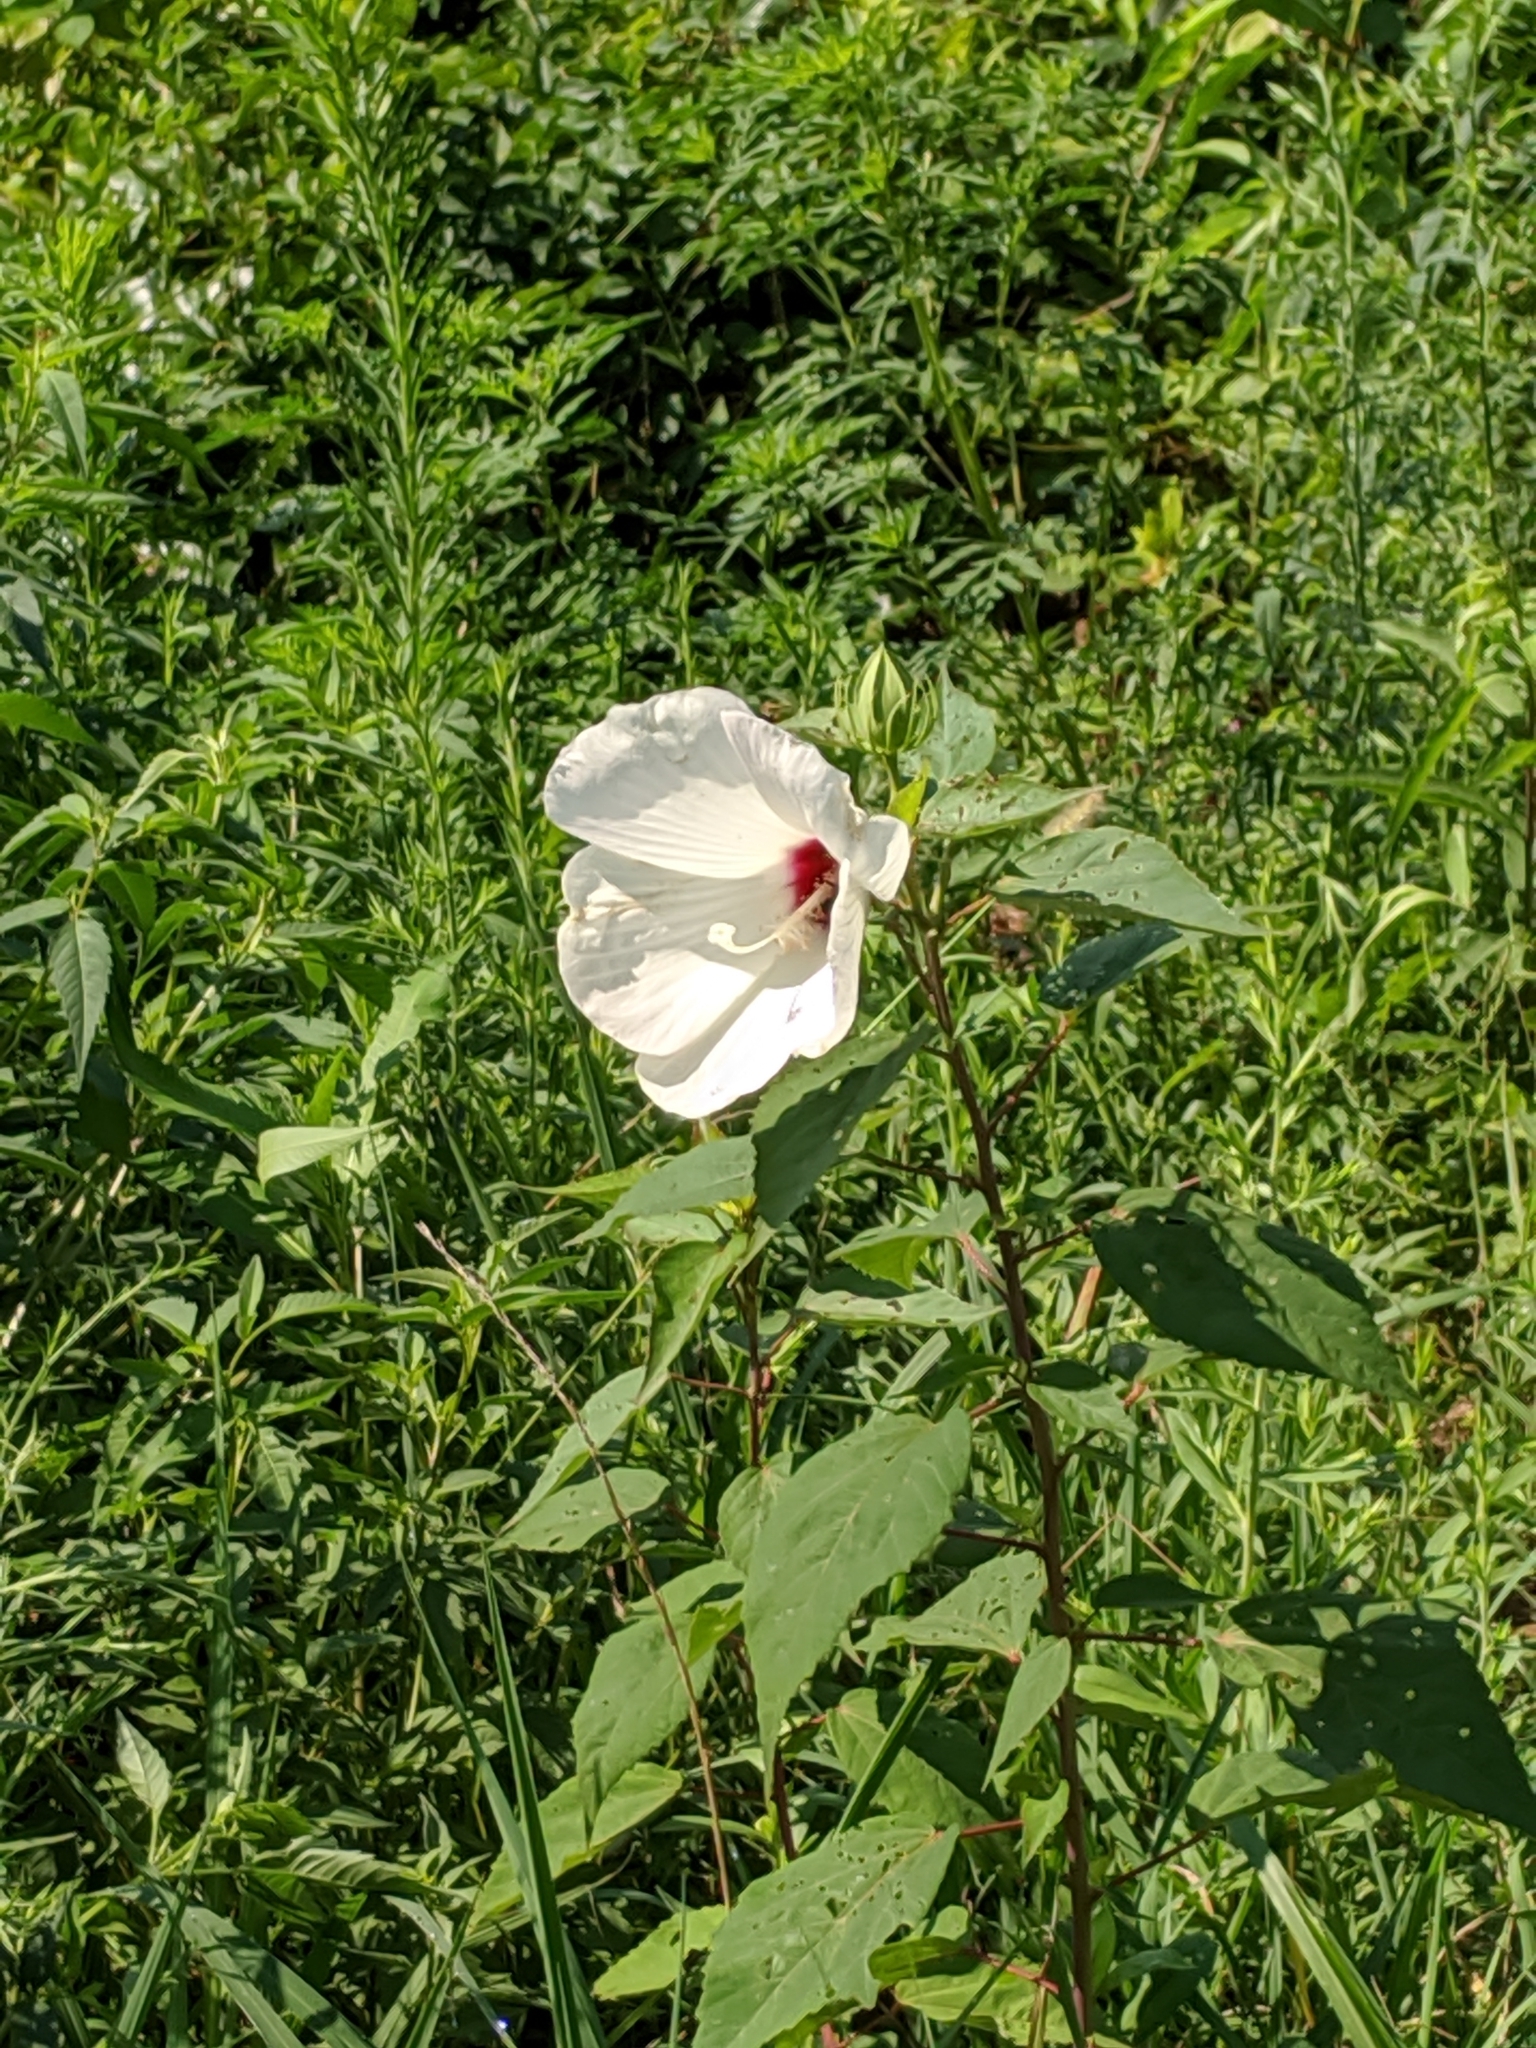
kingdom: Plantae
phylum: Tracheophyta
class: Magnoliopsida
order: Malvales
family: Malvaceae
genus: Hibiscus
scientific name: Hibiscus moscheutos
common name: Common rose-mallow
